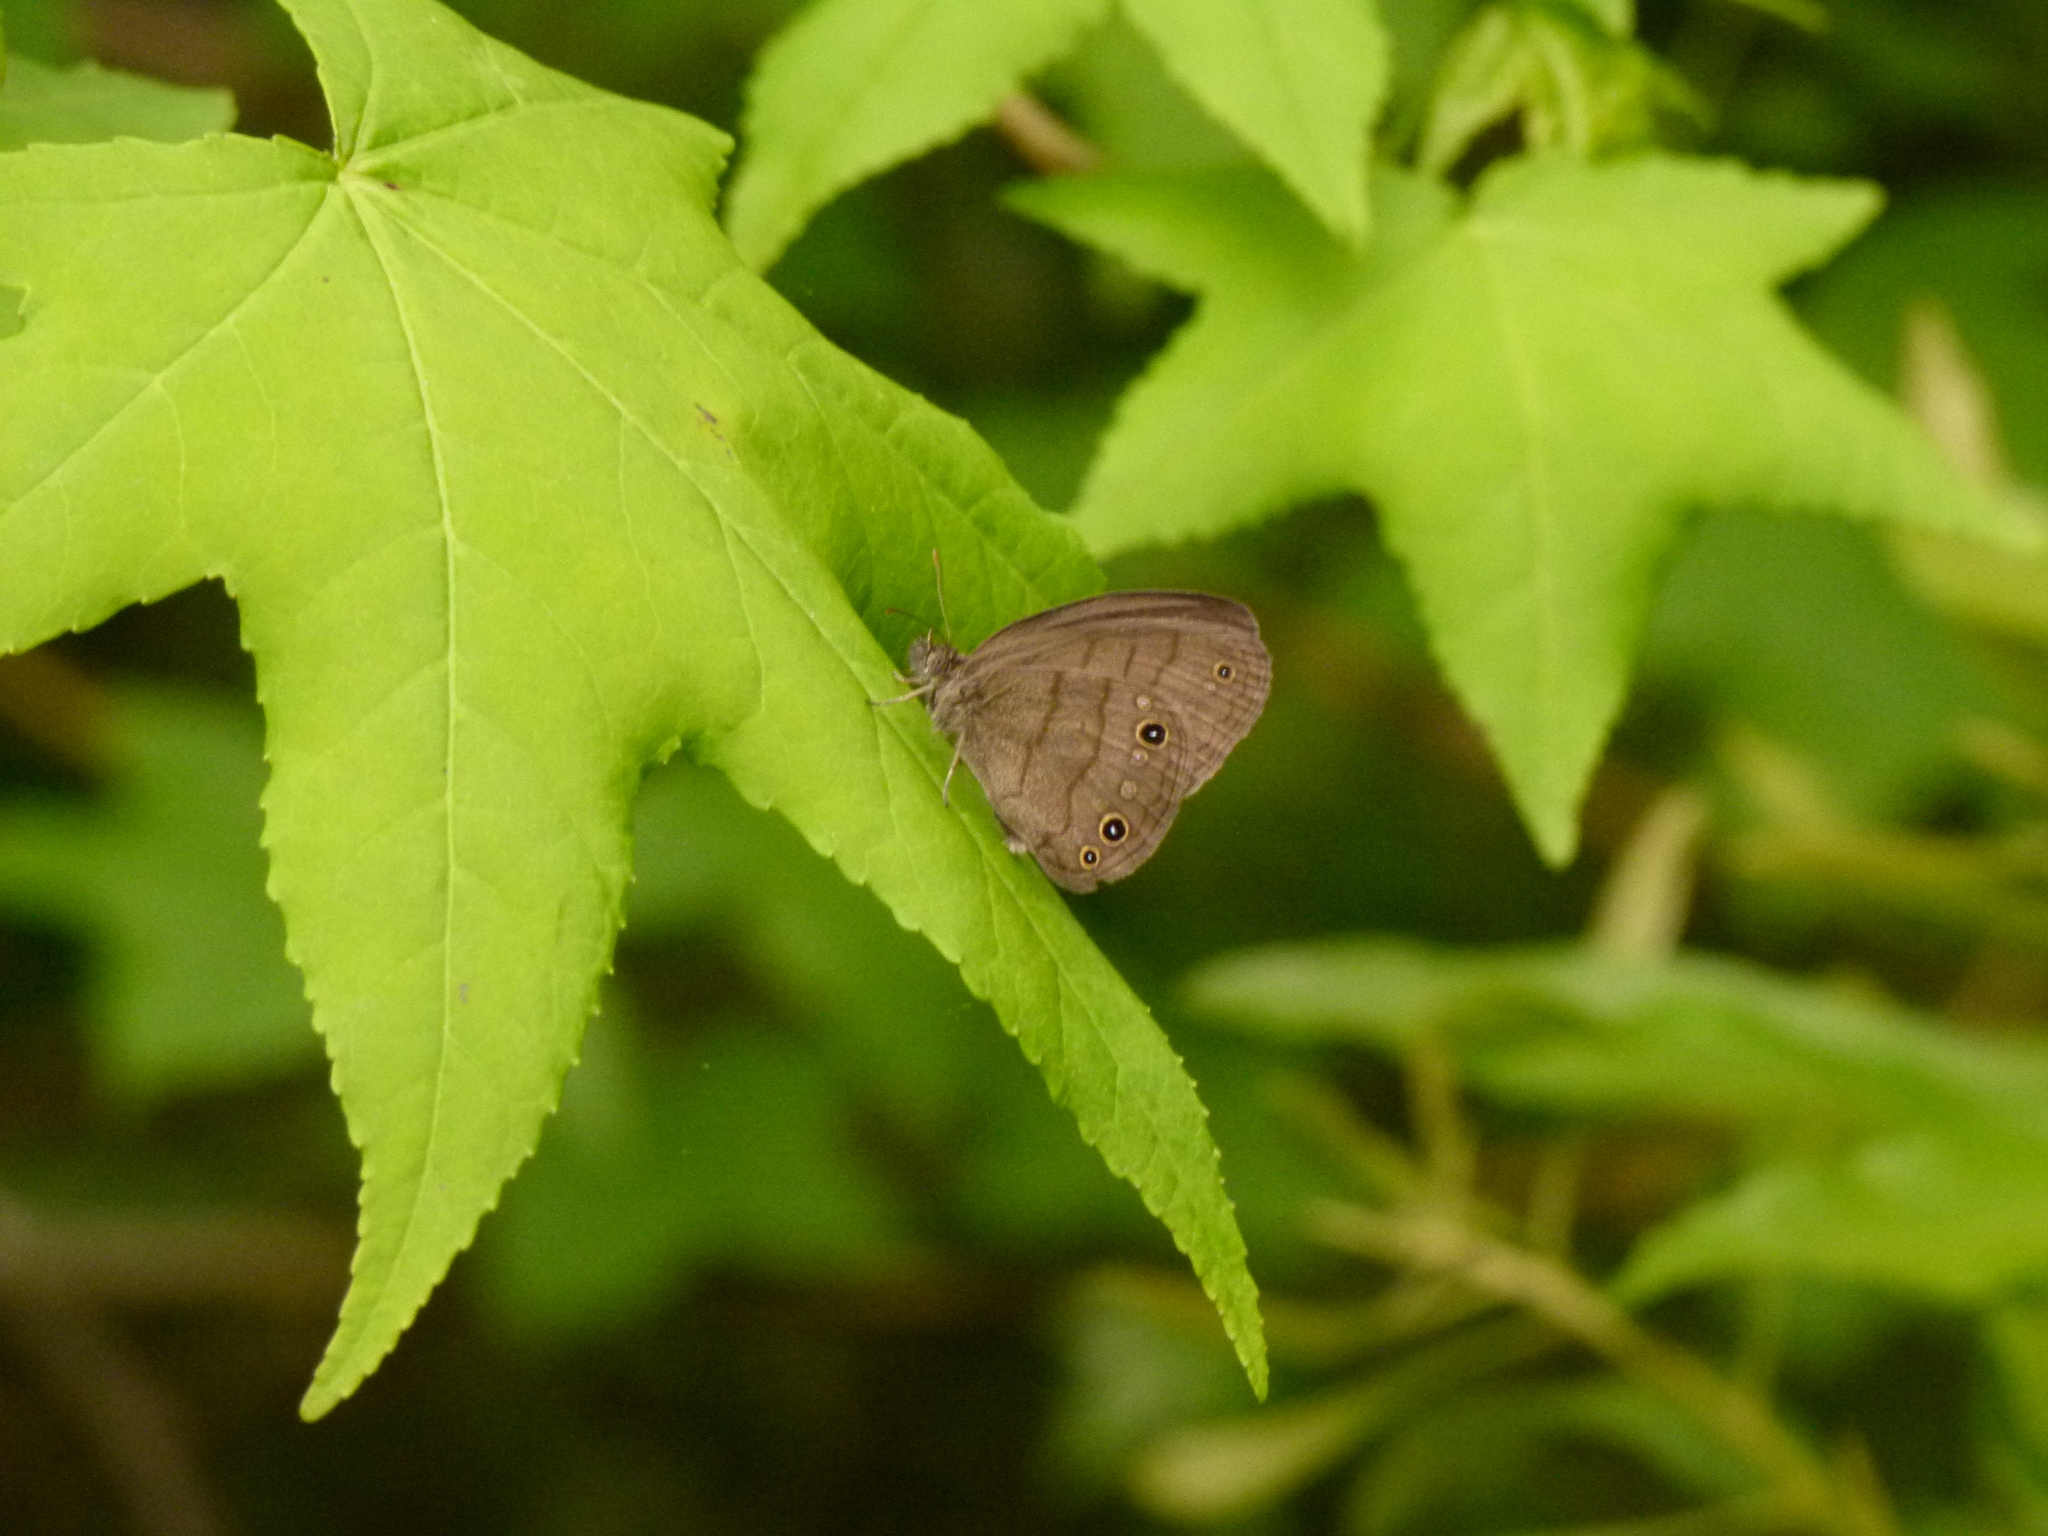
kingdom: Plantae
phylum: Tracheophyta
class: Magnoliopsida
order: Saxifragales
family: Altingiaceae
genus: Liquidambar
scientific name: Liquidambar styraciflua
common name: Sweet gum
